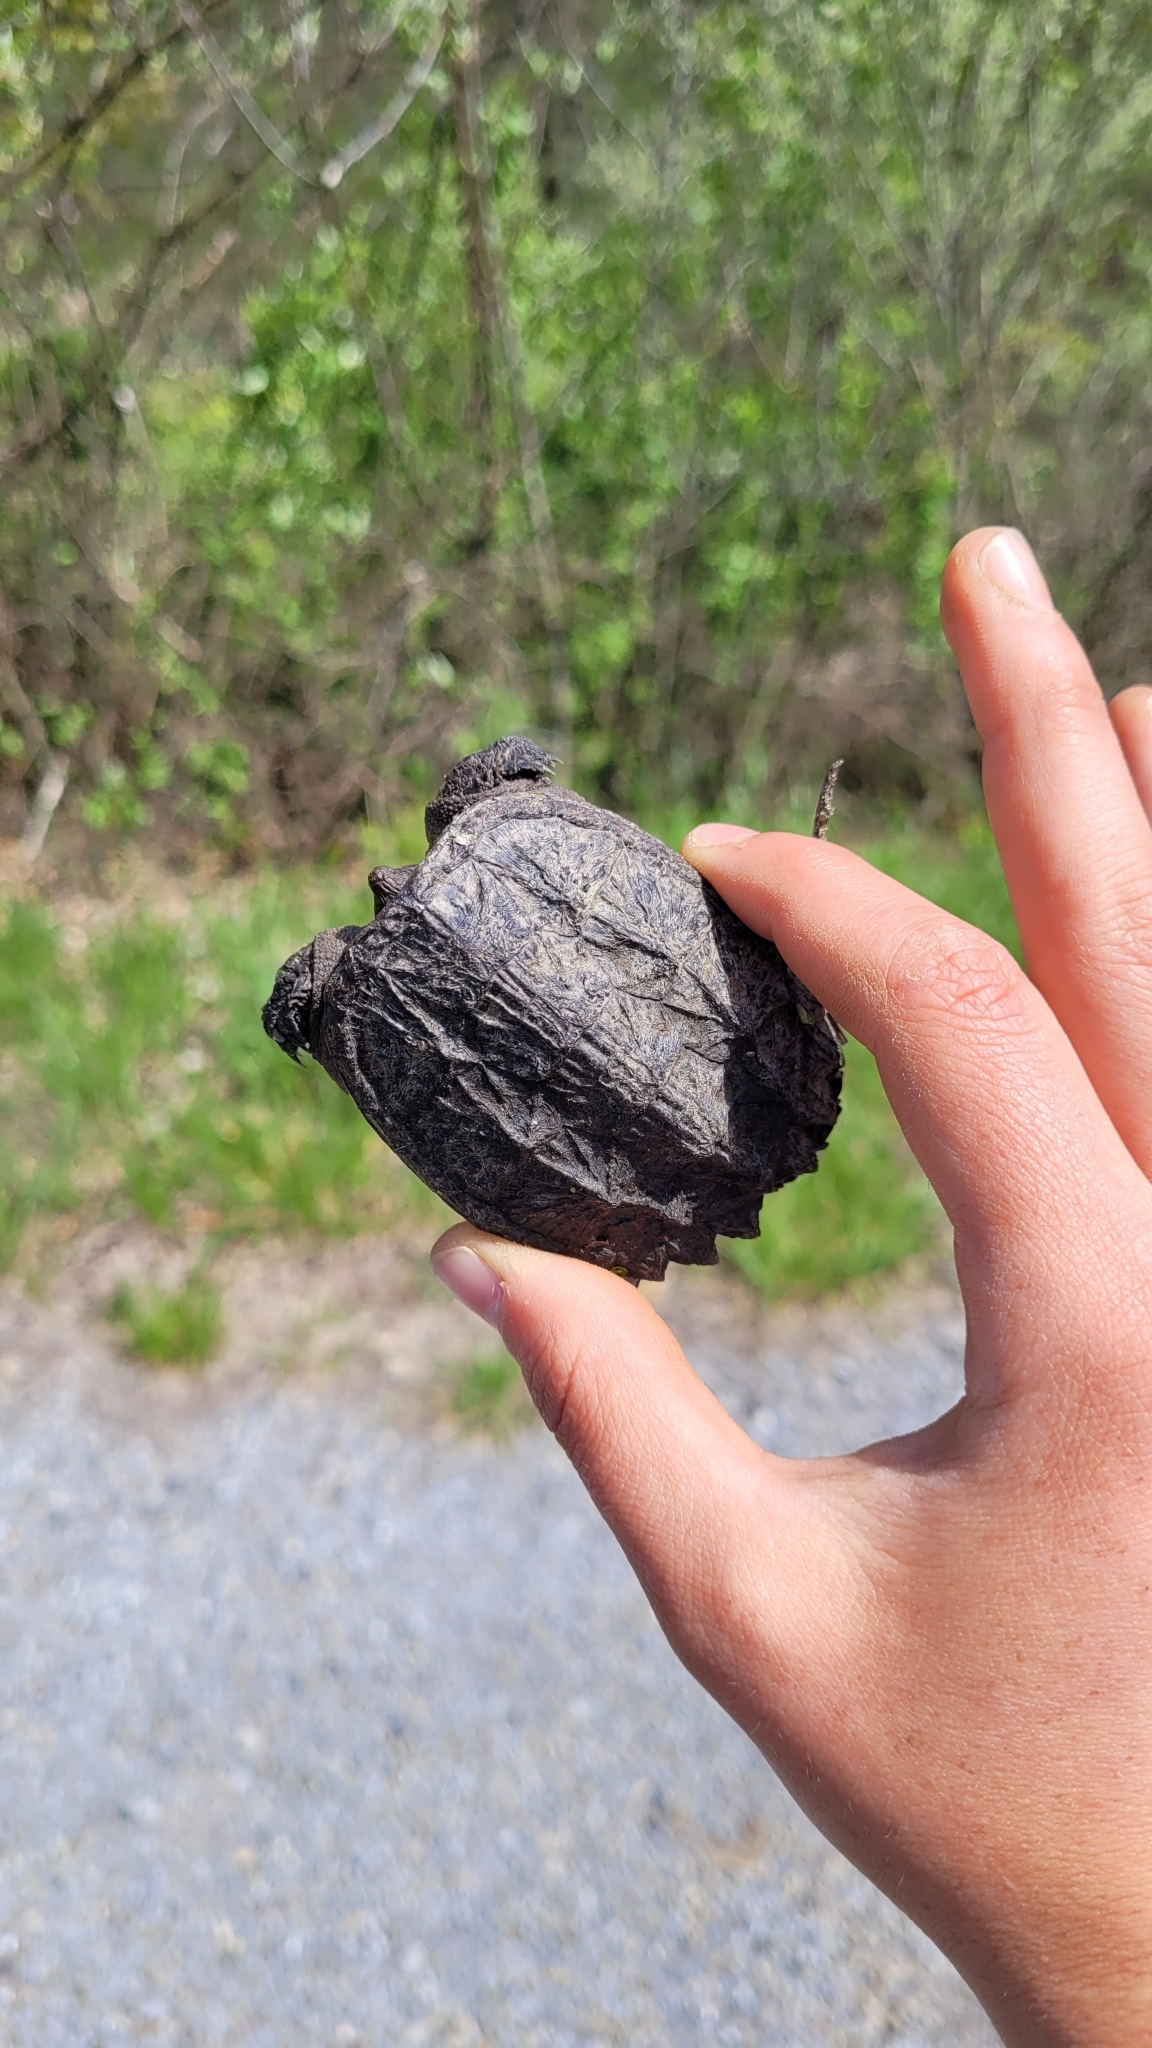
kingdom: Animalia
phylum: Chordata
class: Testudines
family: Chelydridae
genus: Chelydra
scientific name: Chelydra serpentina
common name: Common snapping turtle
